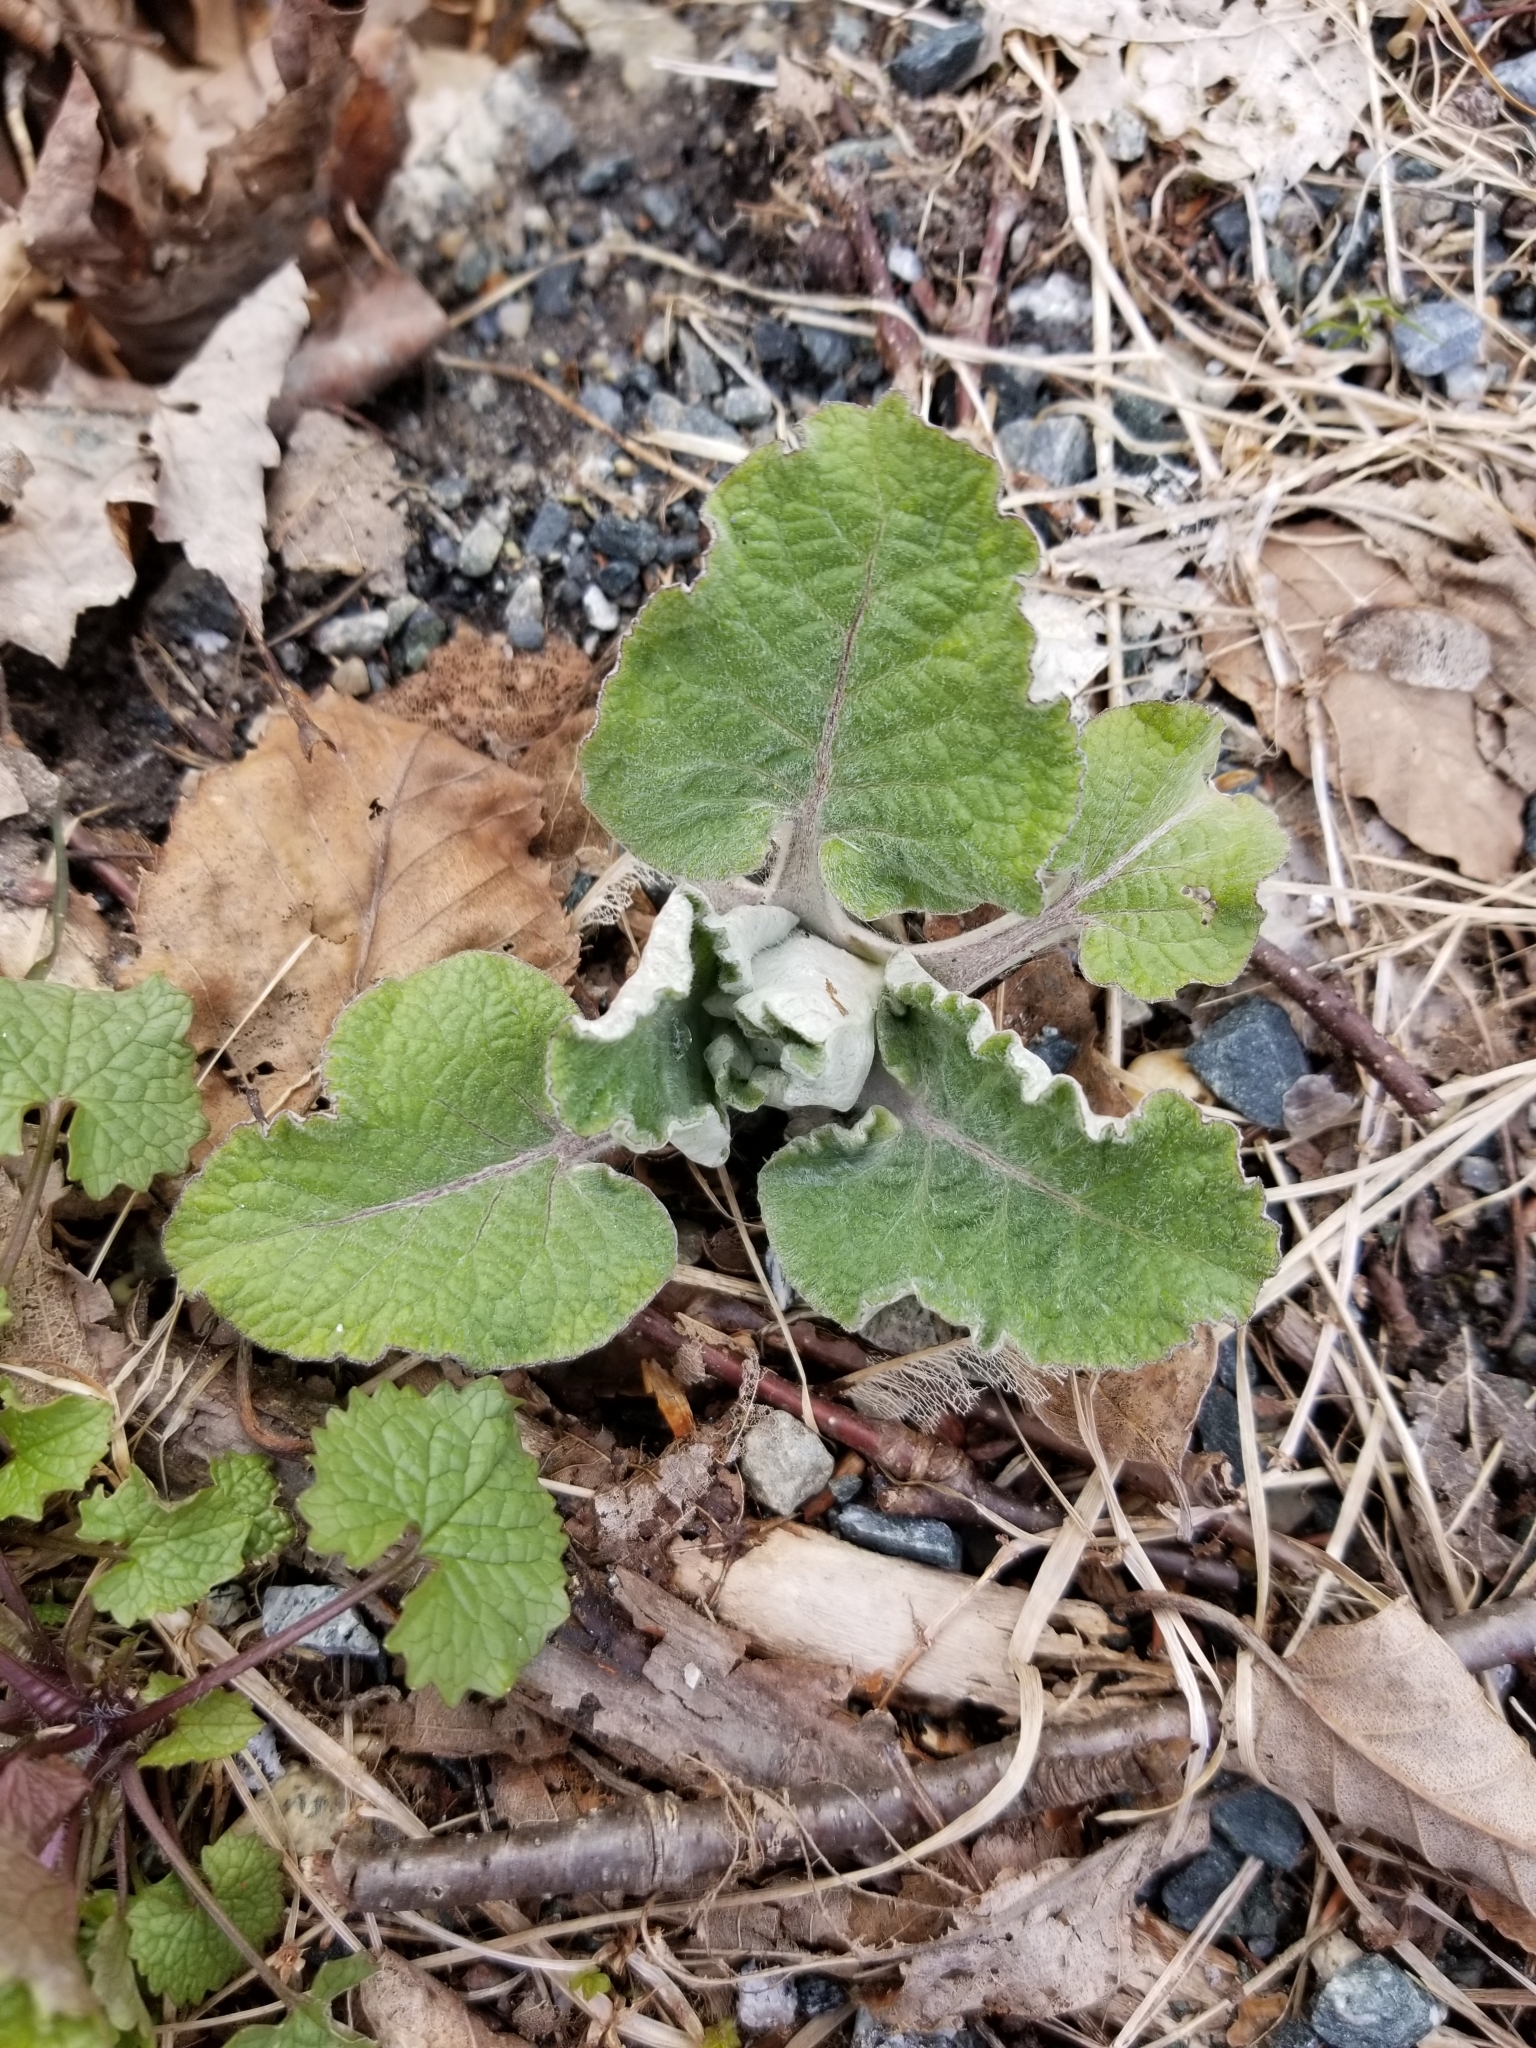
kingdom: Plantae
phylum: Tracheophyta
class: Magnoliopsida
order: Asterales
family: Asteraceae
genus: Arctium
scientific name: Arctium
